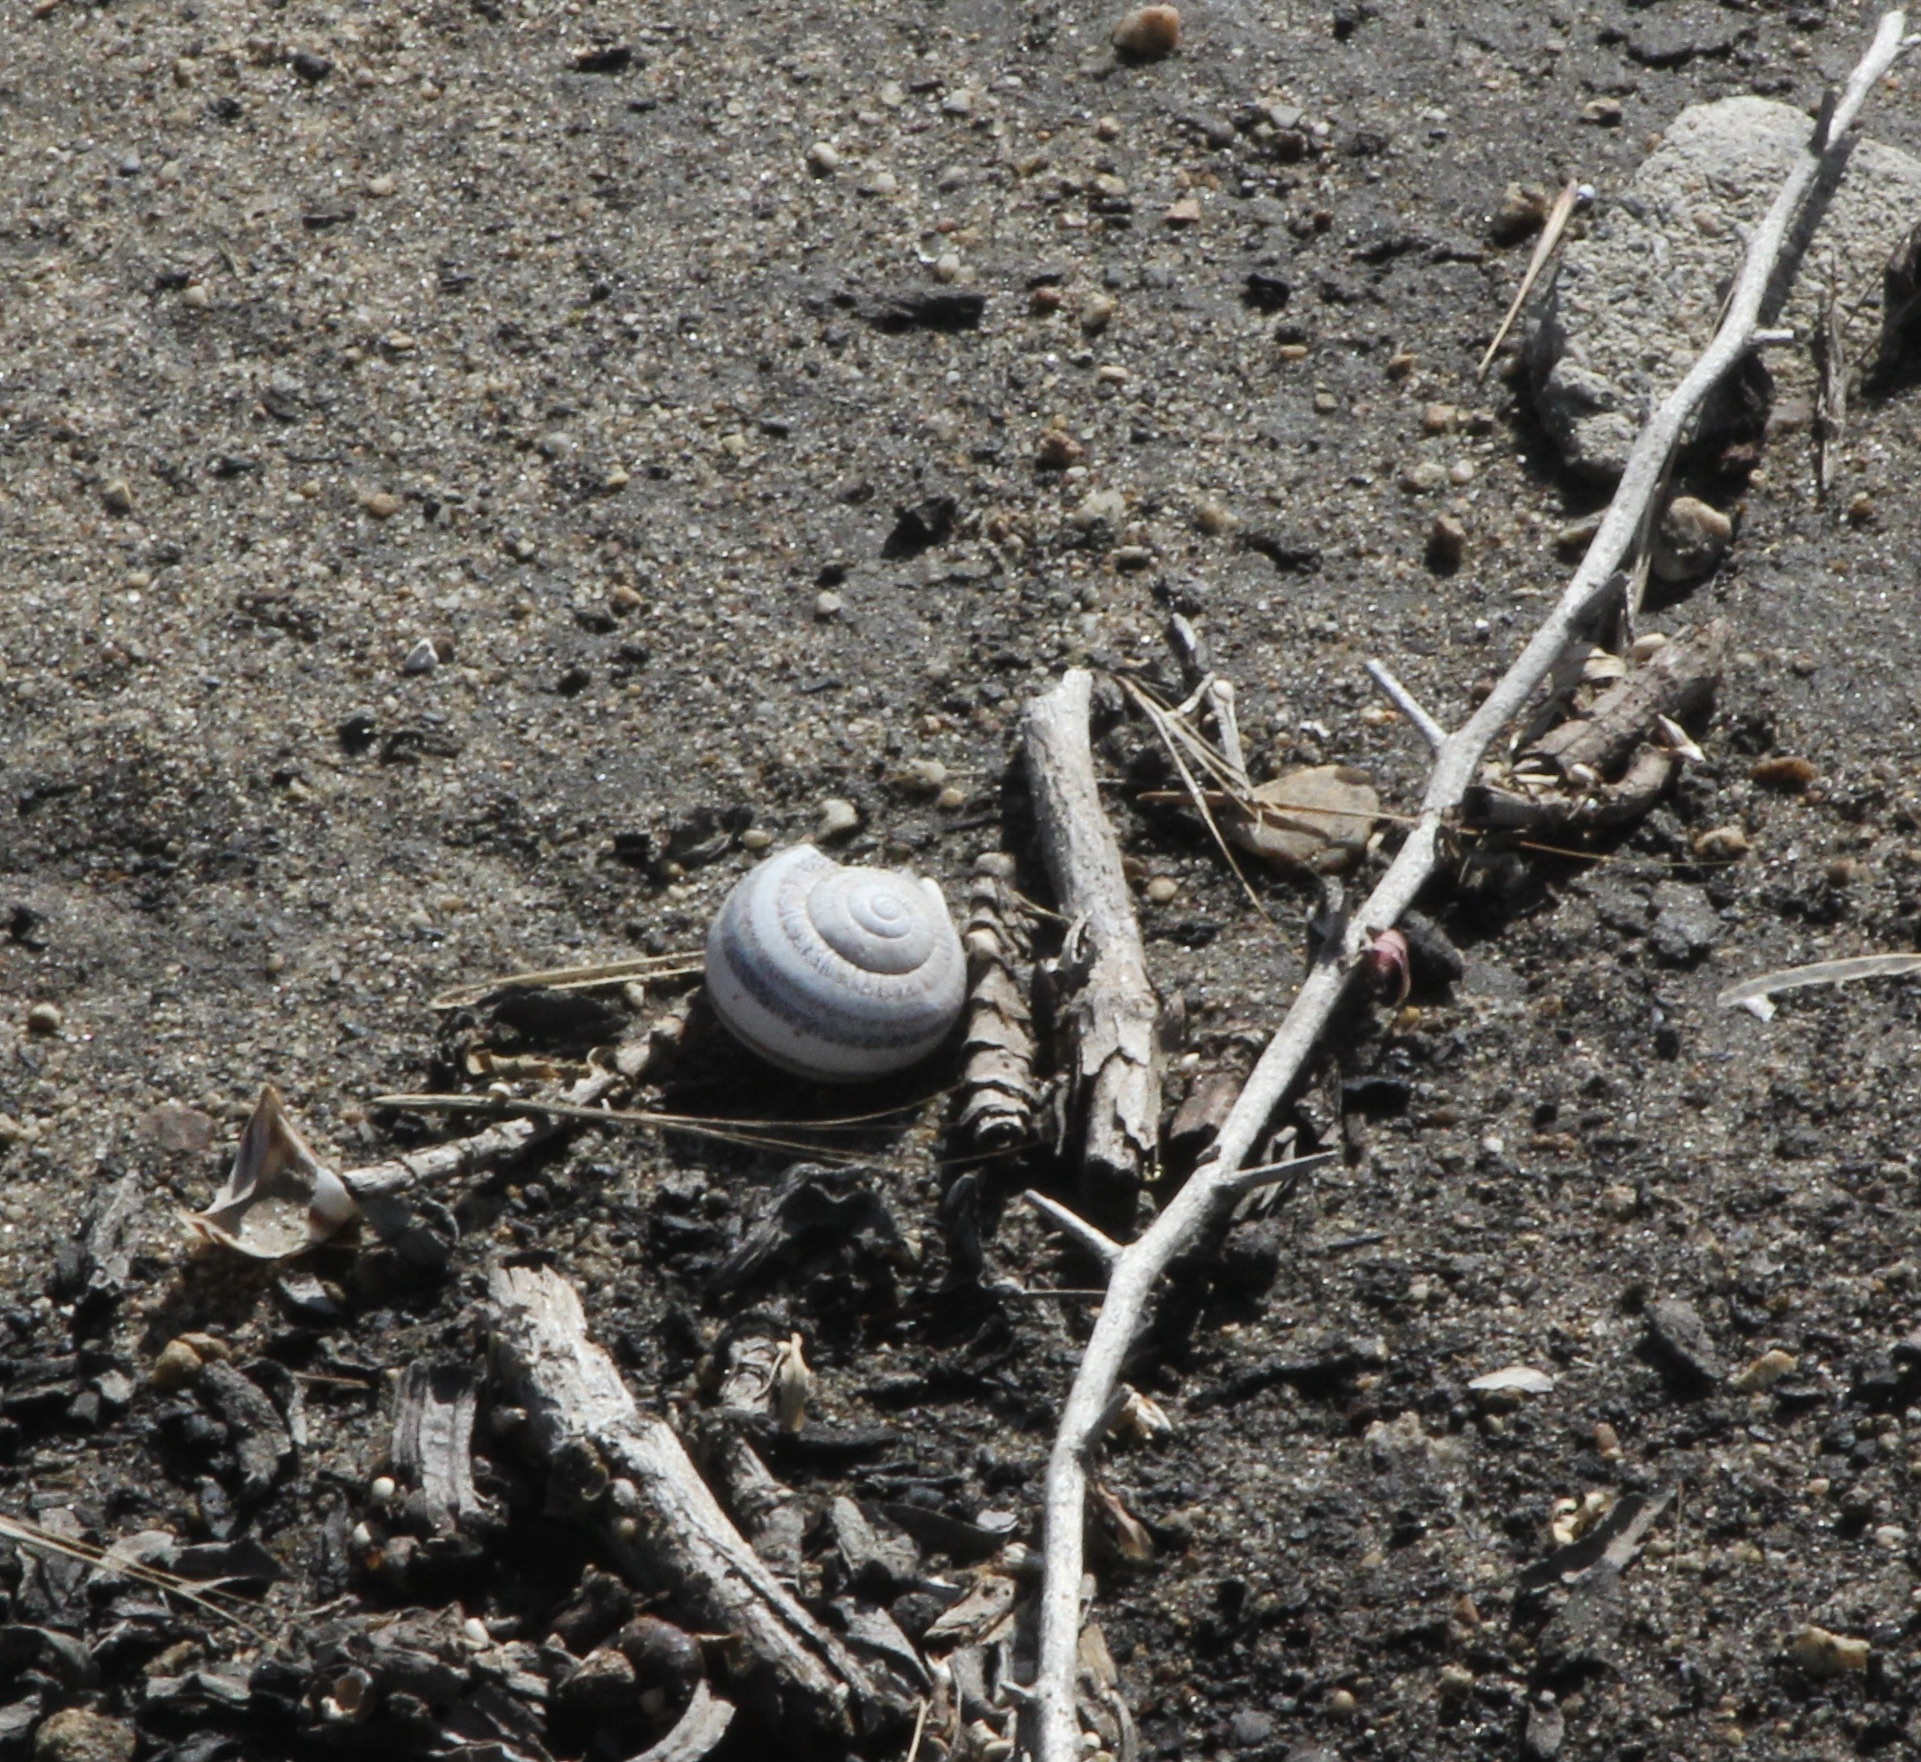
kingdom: Animalia
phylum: Mollusca
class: Gastropoda
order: Stylommatophora
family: Helicidae
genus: Otala
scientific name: Otala lactea
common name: Milk snail
